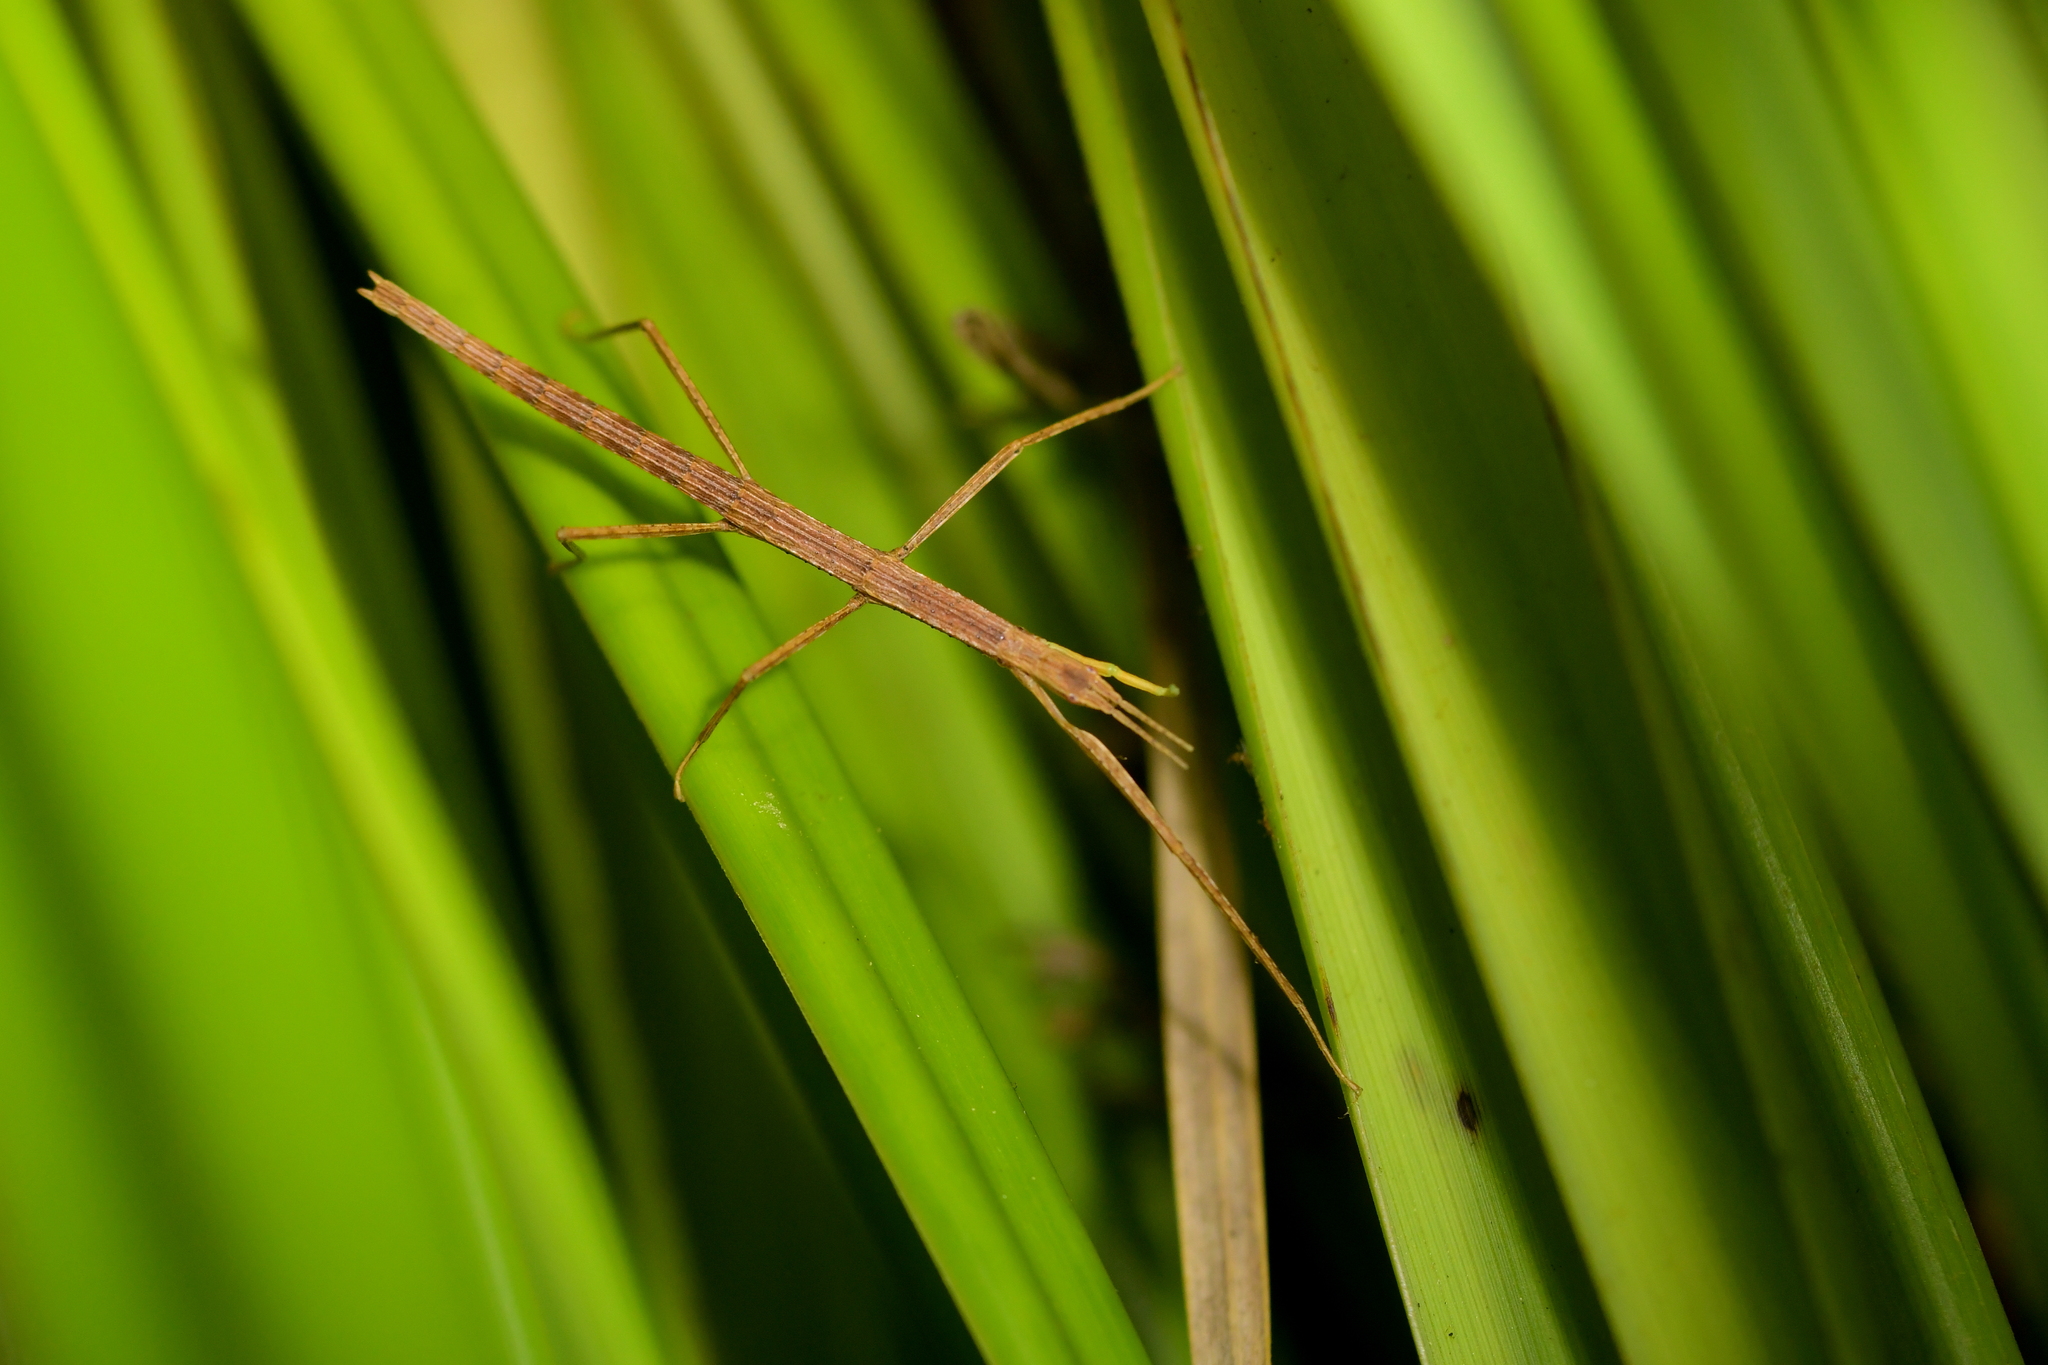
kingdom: Animalia
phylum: Arthropoda
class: Insecta
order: Phasmida
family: Phasmatidae
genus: Tectarchus
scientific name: Tectarchus huttoni
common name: The common ridge-backed stick insect
